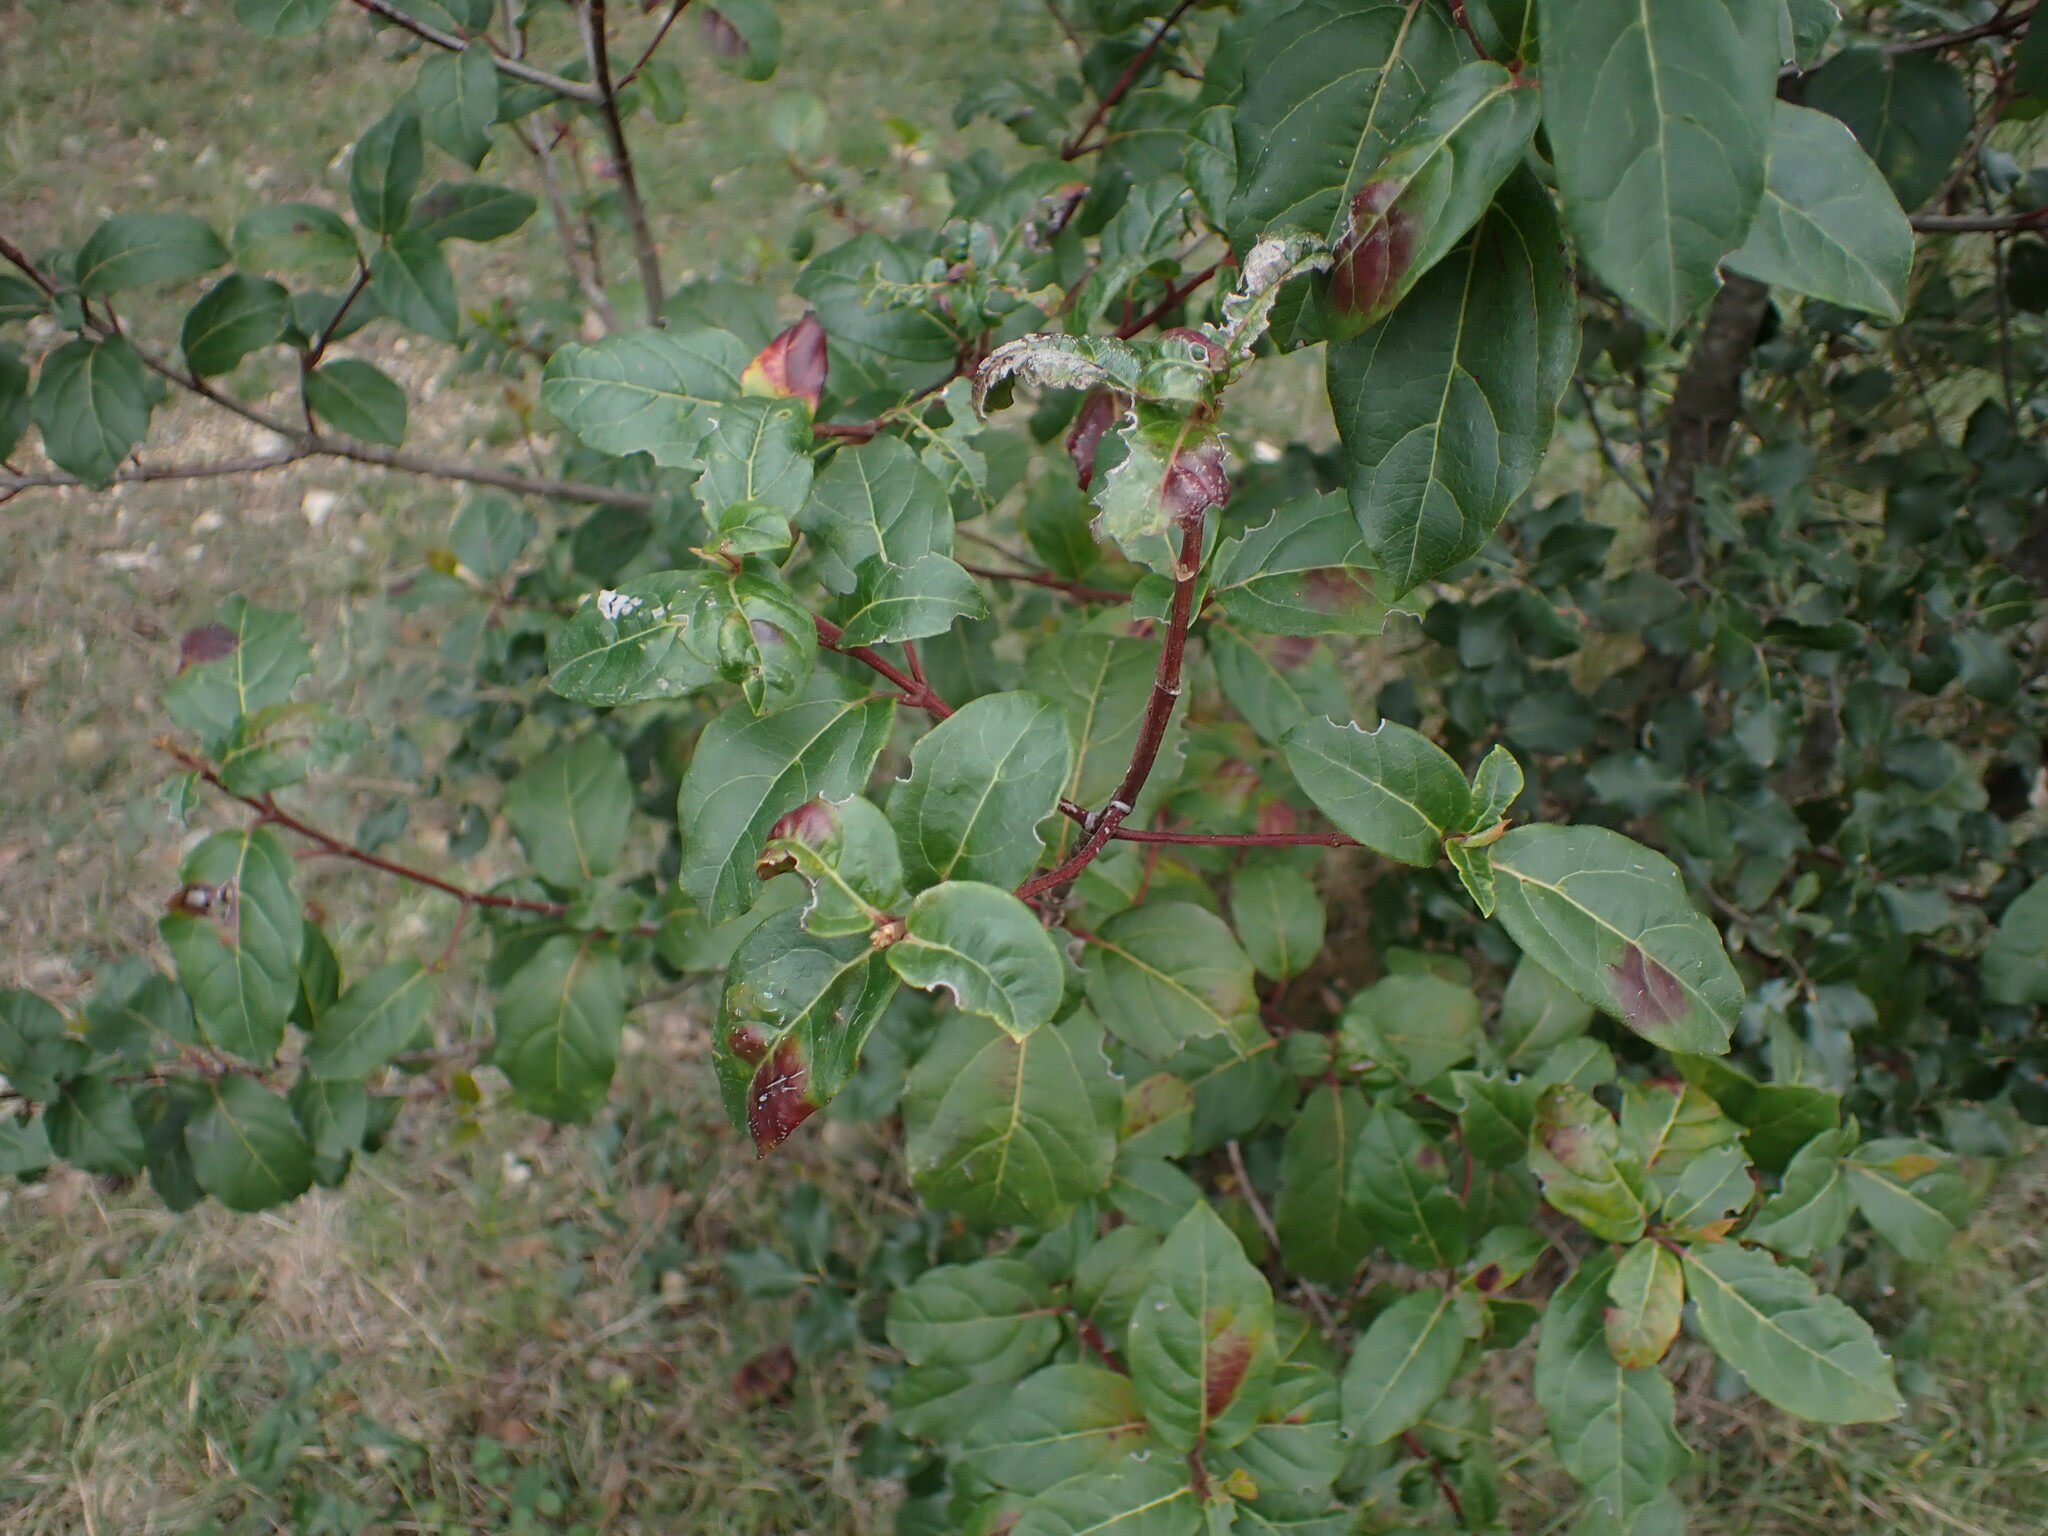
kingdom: Plantae
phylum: Tracheophyta
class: Magnoliopsida
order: Dipsacales
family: Viburnaceae
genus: Viburnum
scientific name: Viburnum tinus
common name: Laurustinus
